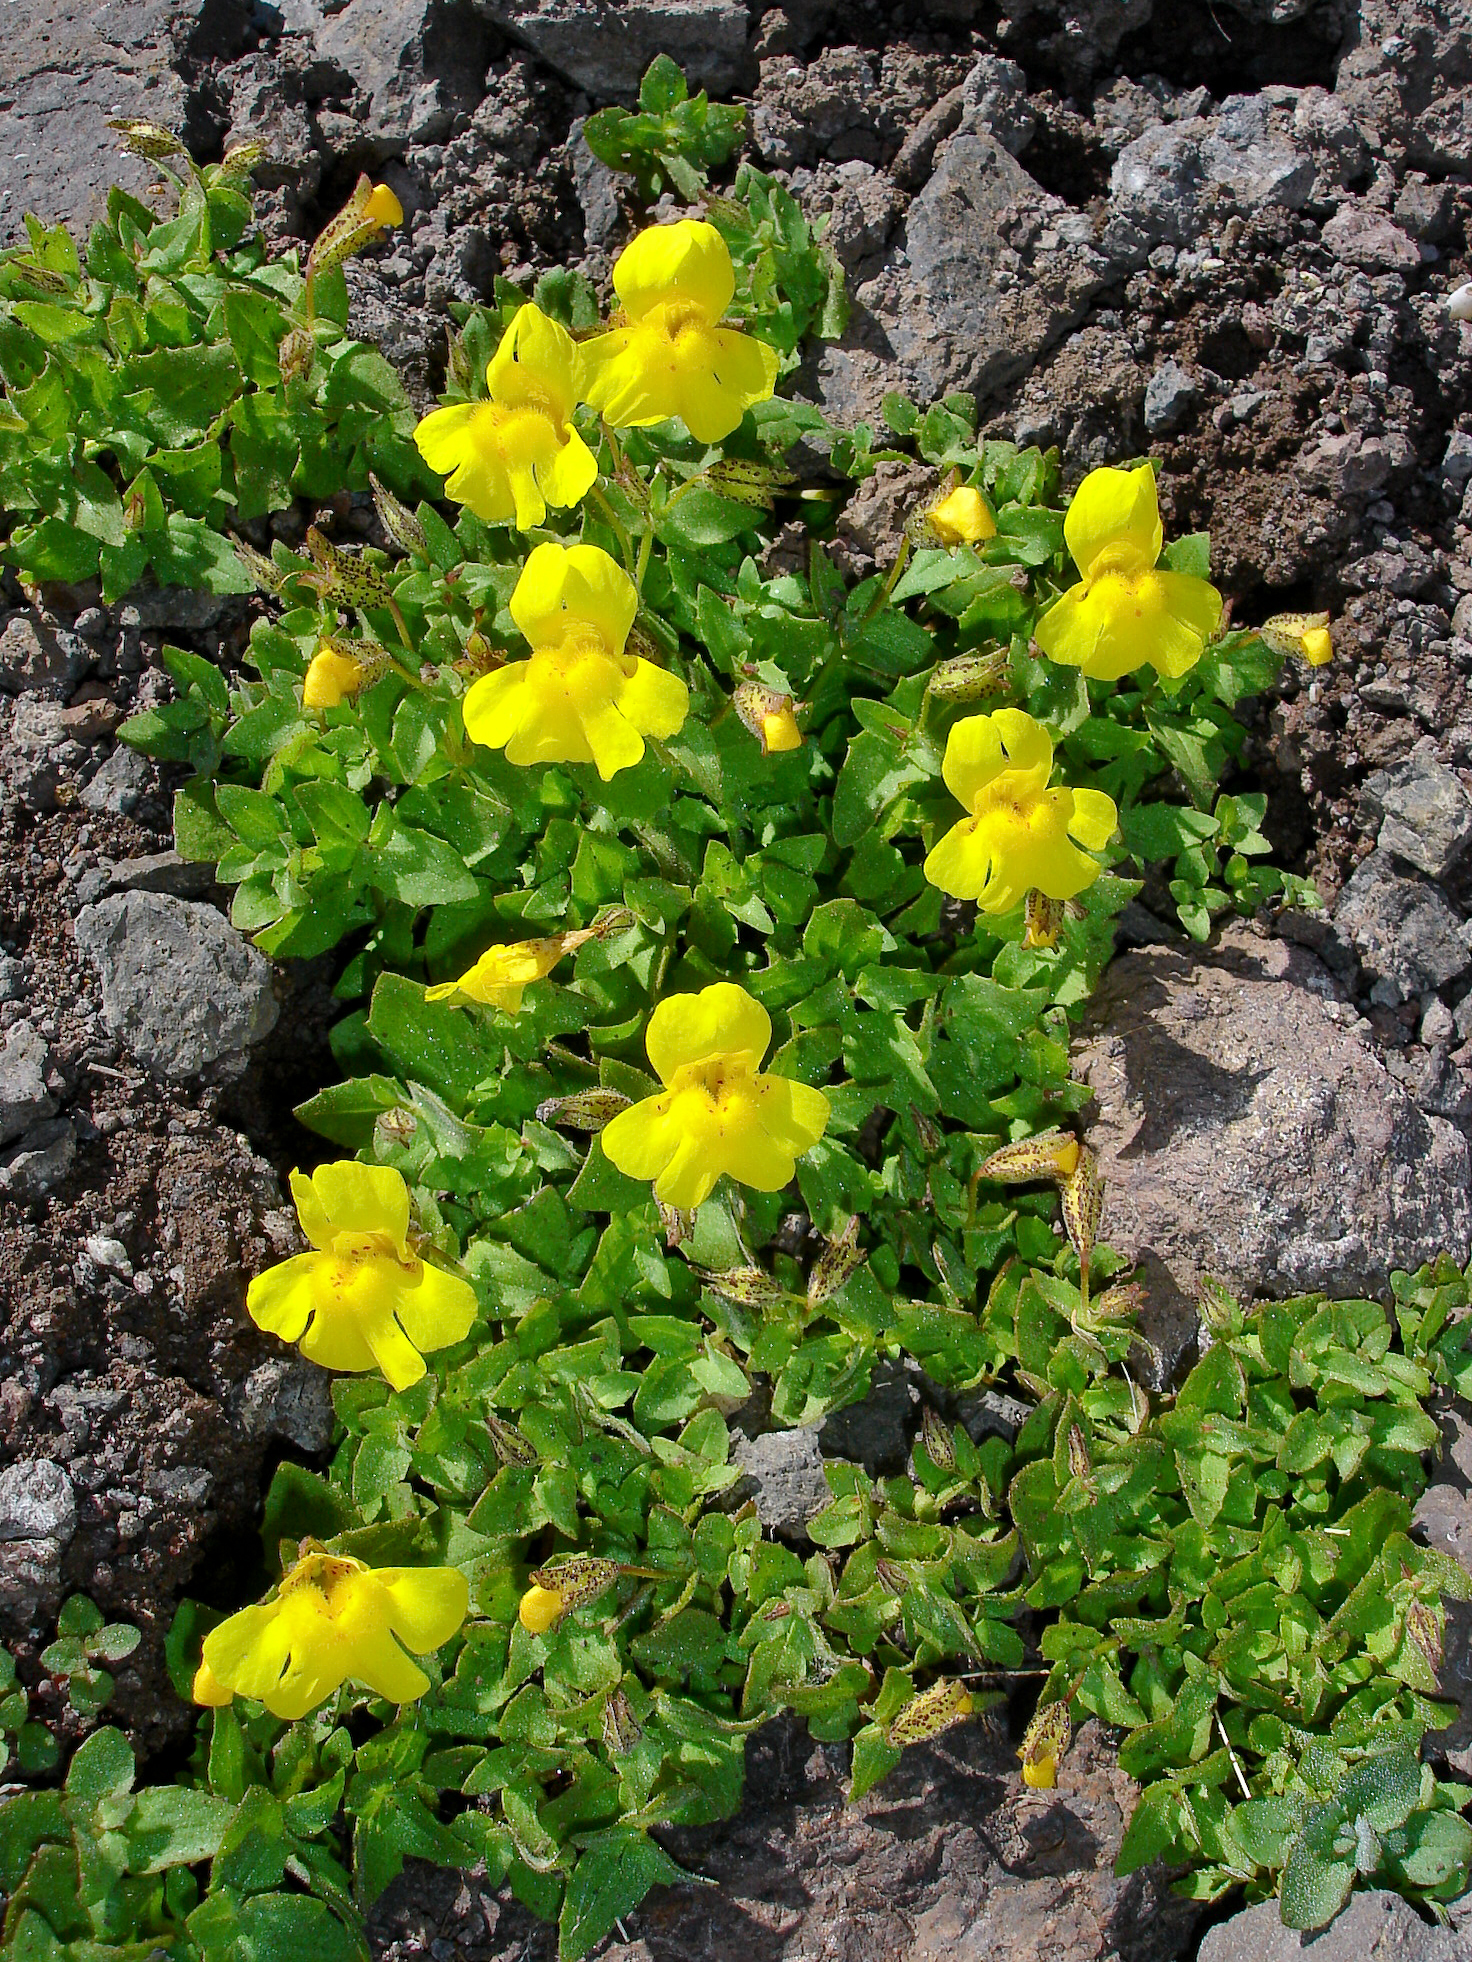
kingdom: Plantae
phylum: Tracheophyta
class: Magnoliopsida
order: Lamiales
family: Phrymaceae
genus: Erythranthe
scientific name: Erythranthe tilingii
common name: Subalpine monkey-flower
